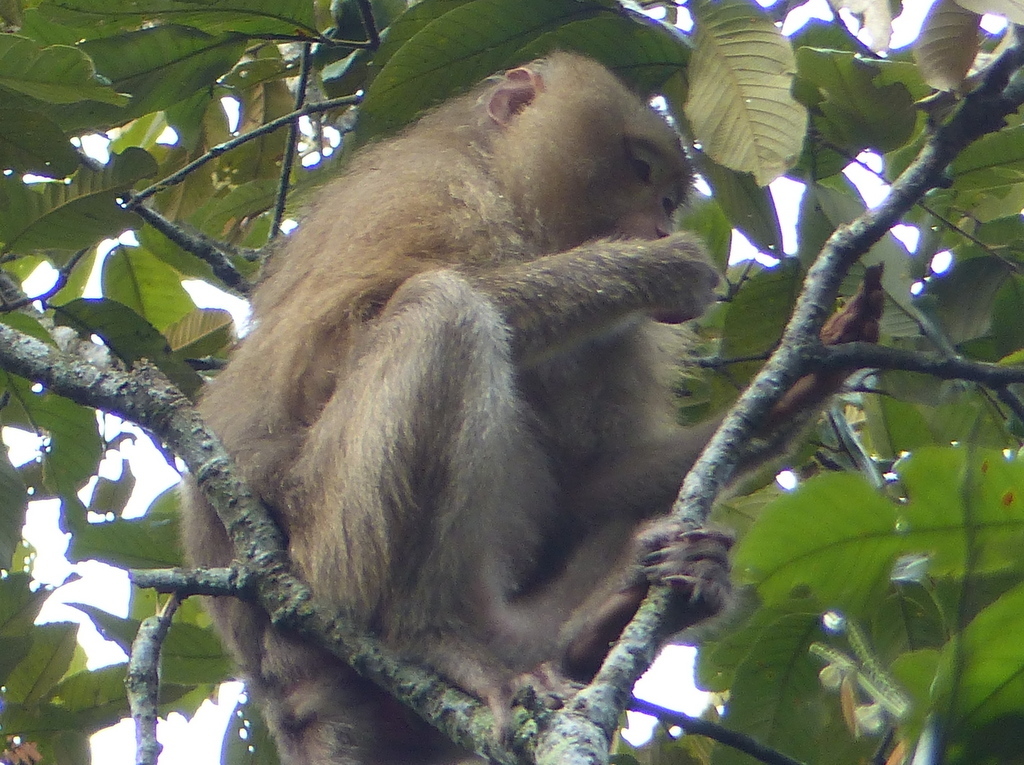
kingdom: Animalia
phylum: Chordata
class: Mammalia
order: Primates
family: Cercopithecidae
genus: Macaca
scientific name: Macaca leonina
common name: Northern pig-tailed macaque
